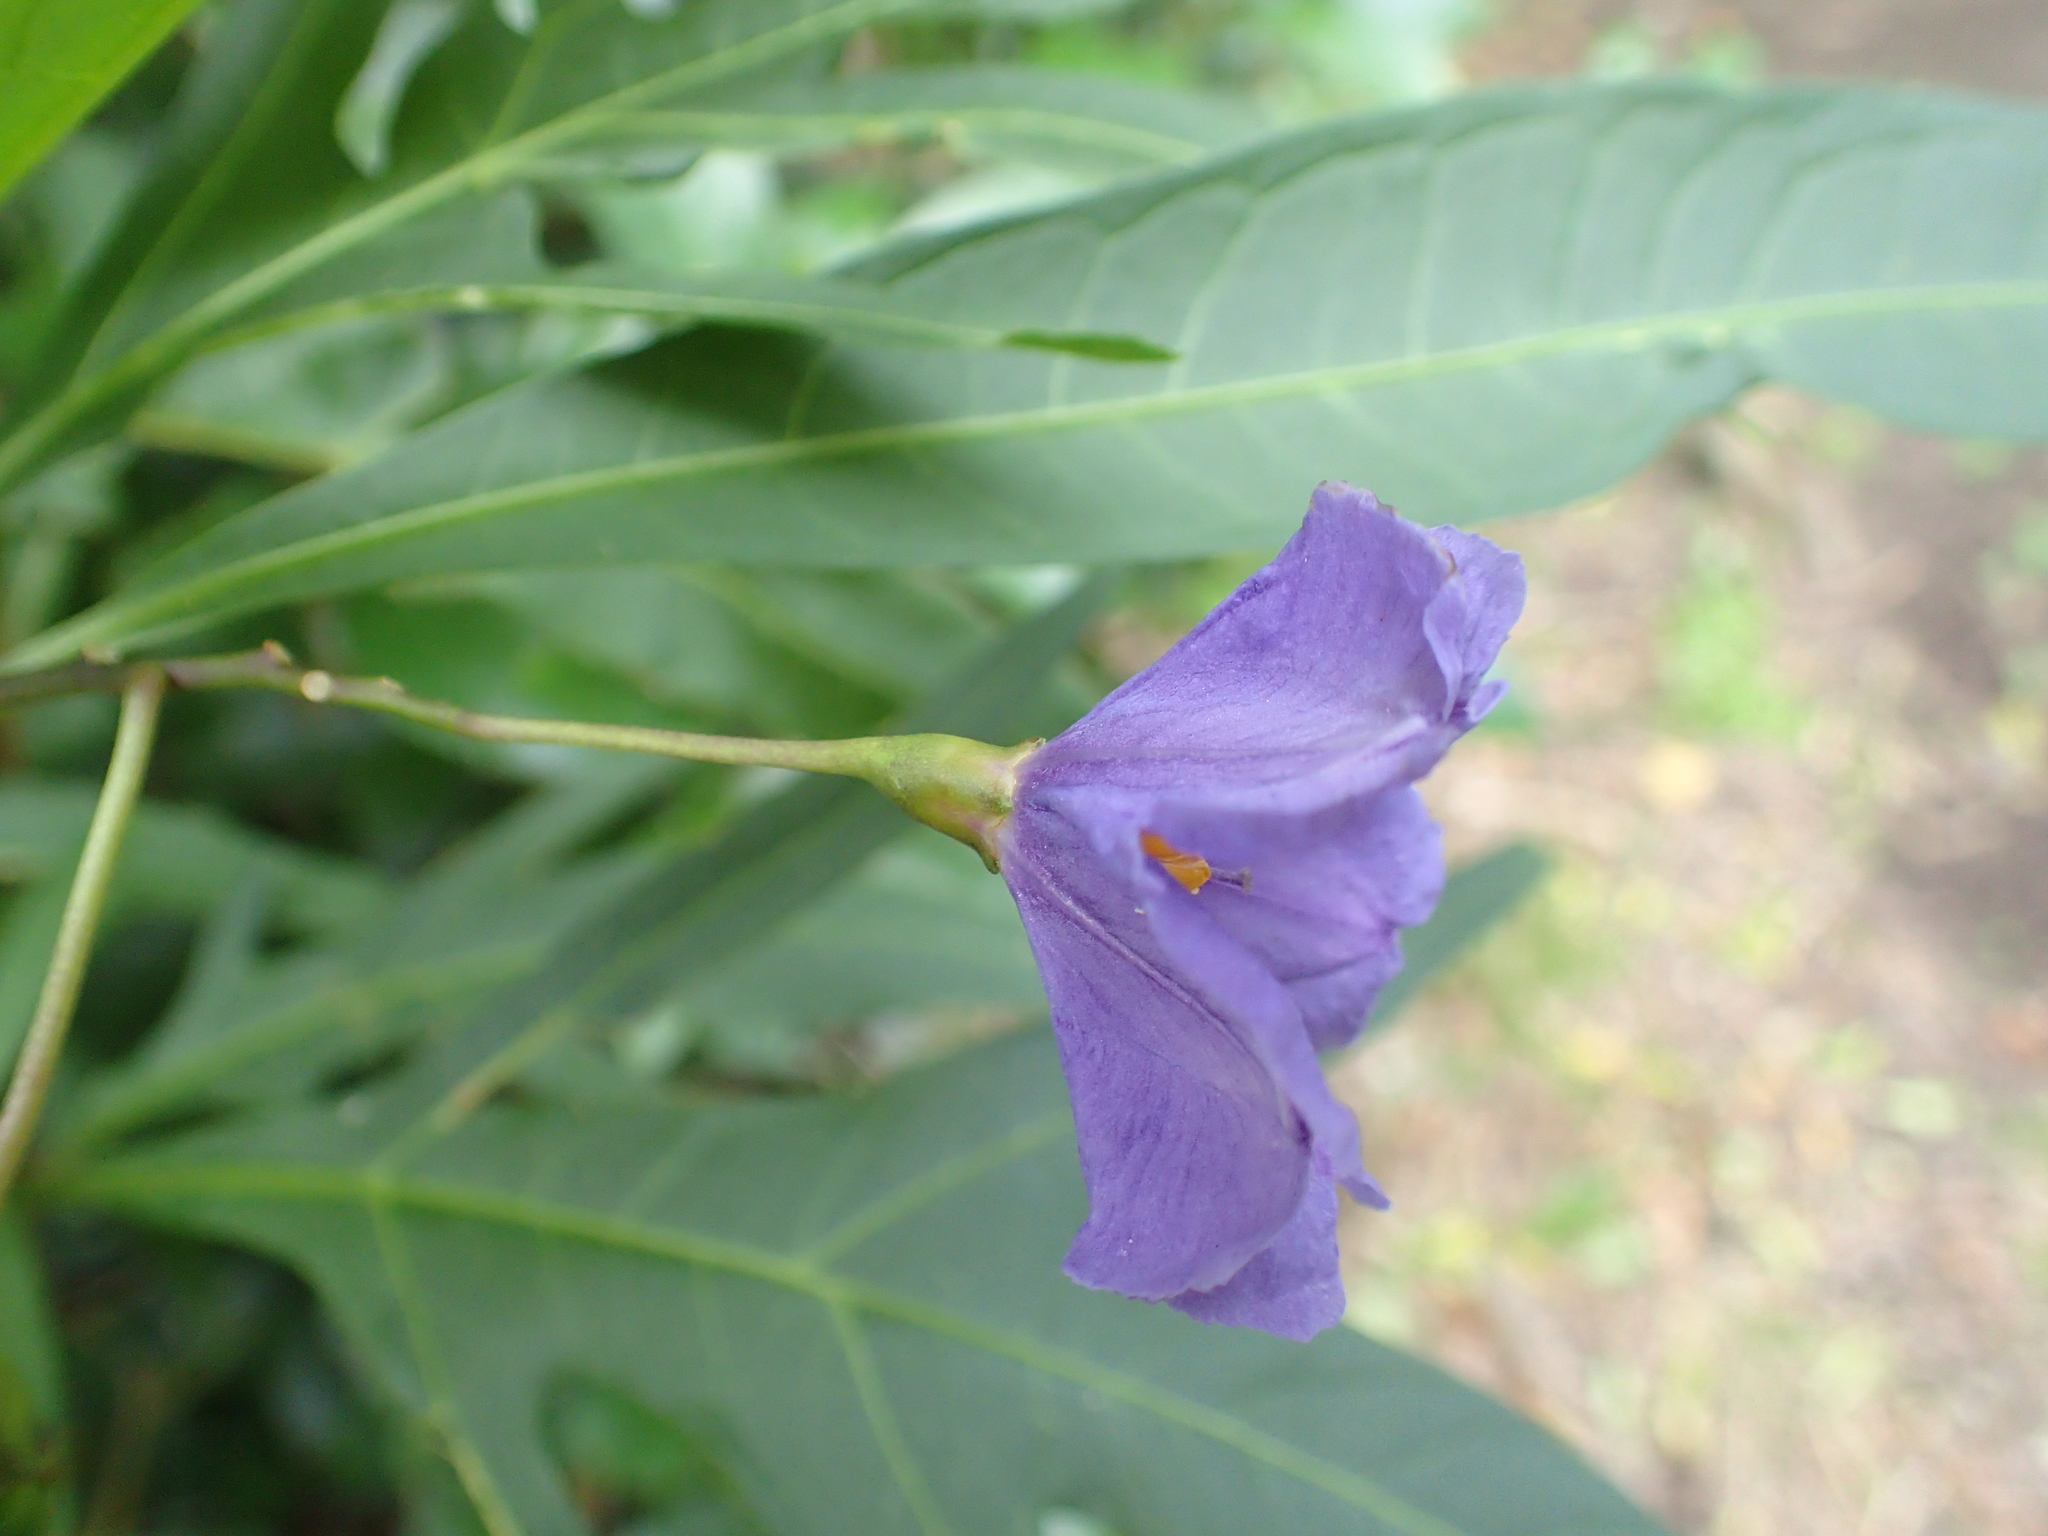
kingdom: Plantae
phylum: Tracheophyta
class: Magnoliopsida
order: Solanales
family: Solanaceae
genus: Solanum
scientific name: Solanum laciniatum
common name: Kangaroo-apple
